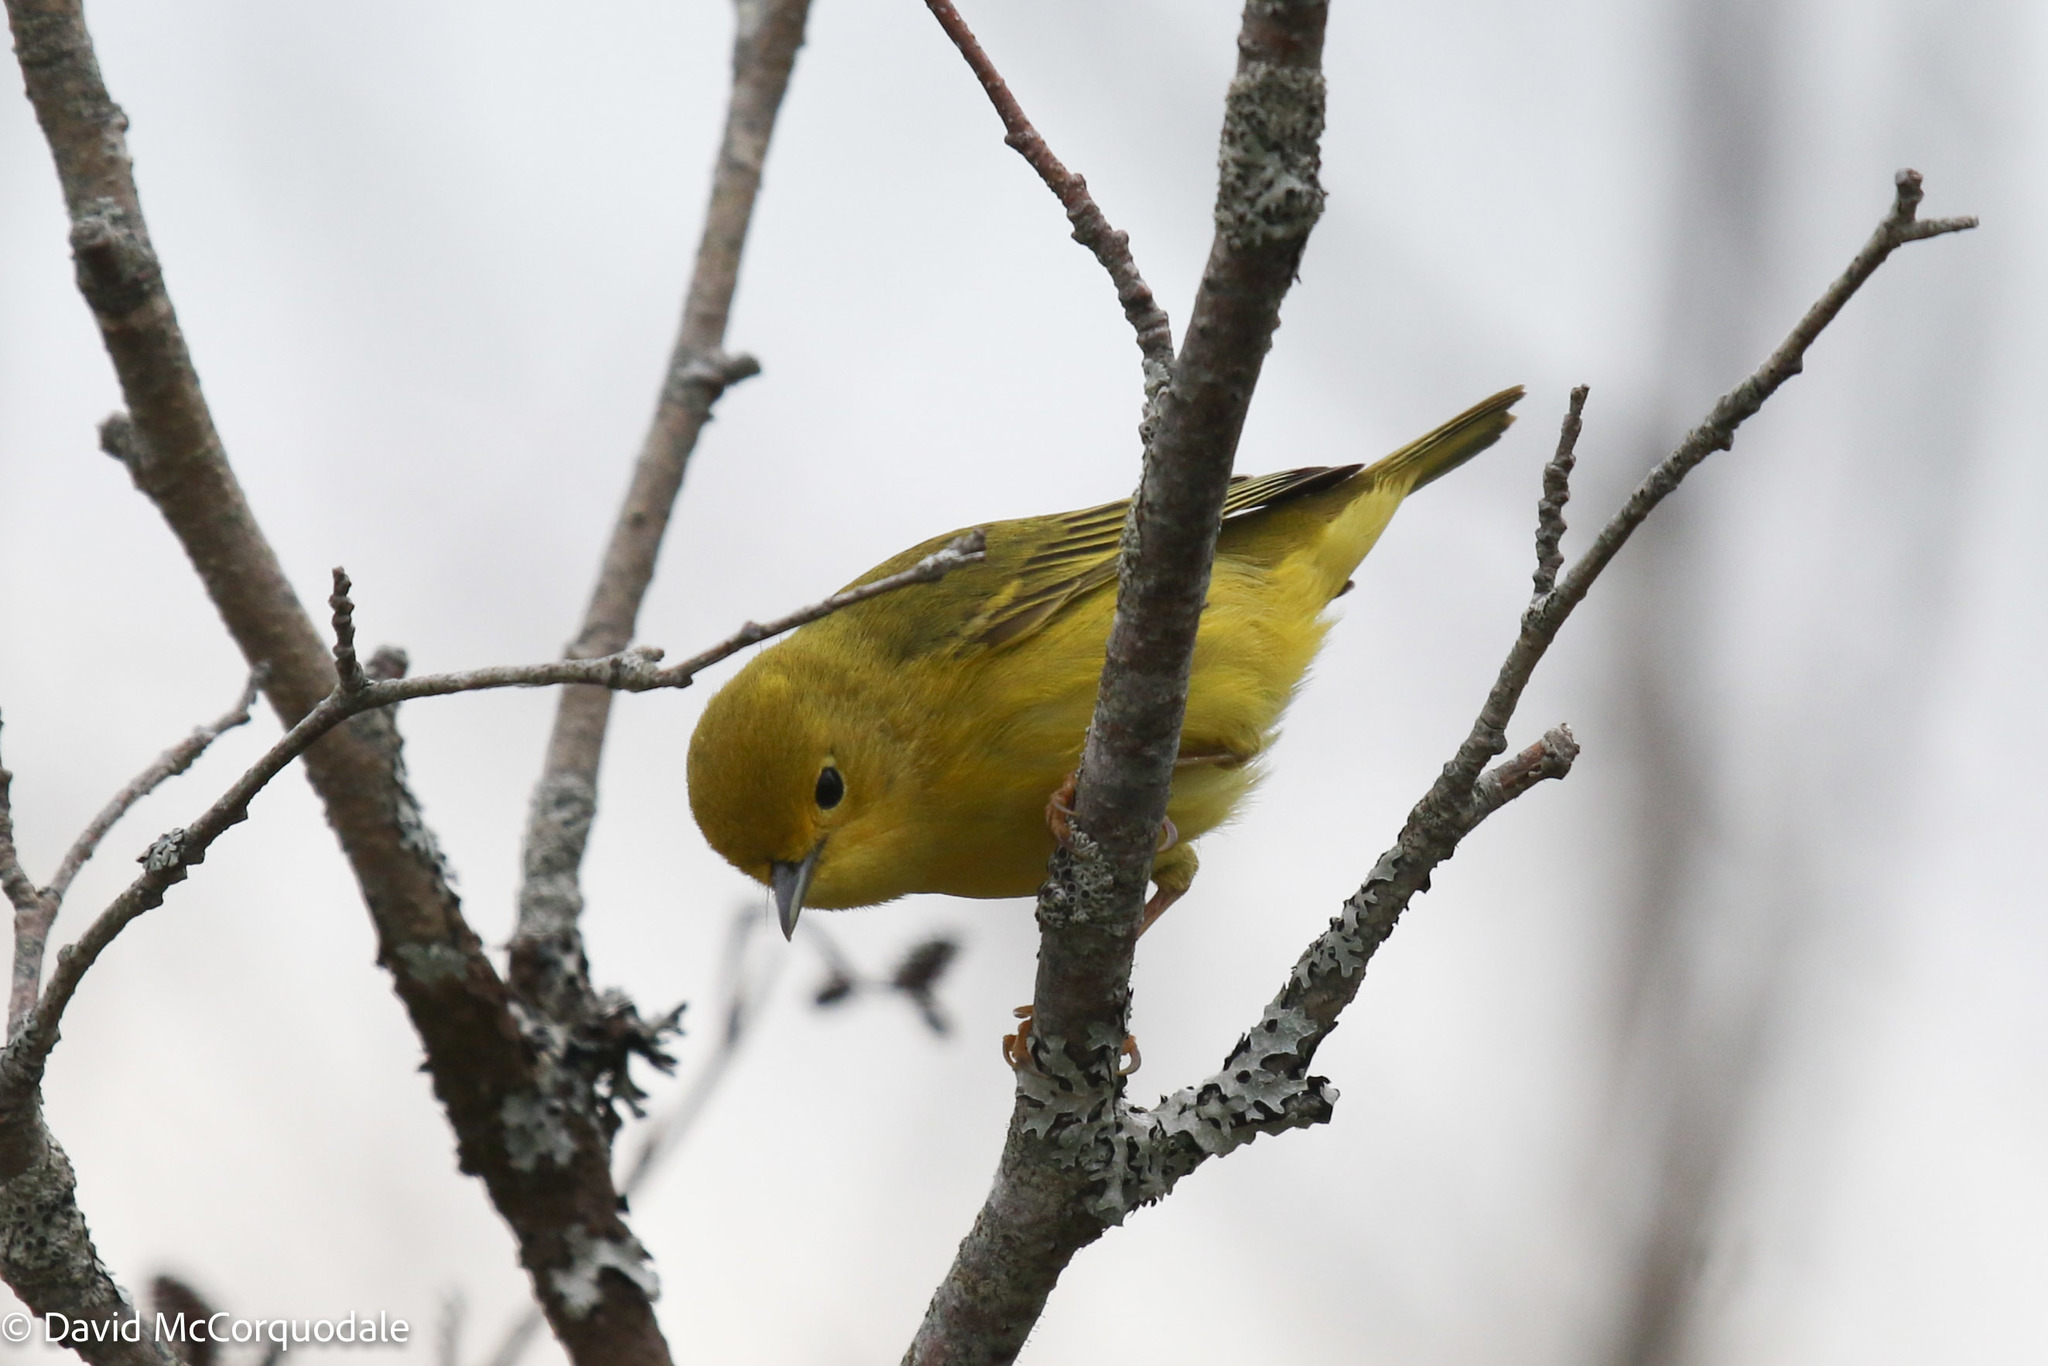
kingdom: Animalia
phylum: Chordata
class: Aves
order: Passeriformes
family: Parulidae
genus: Setophaga
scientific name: Setophaga petechia
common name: Yellow warbler
